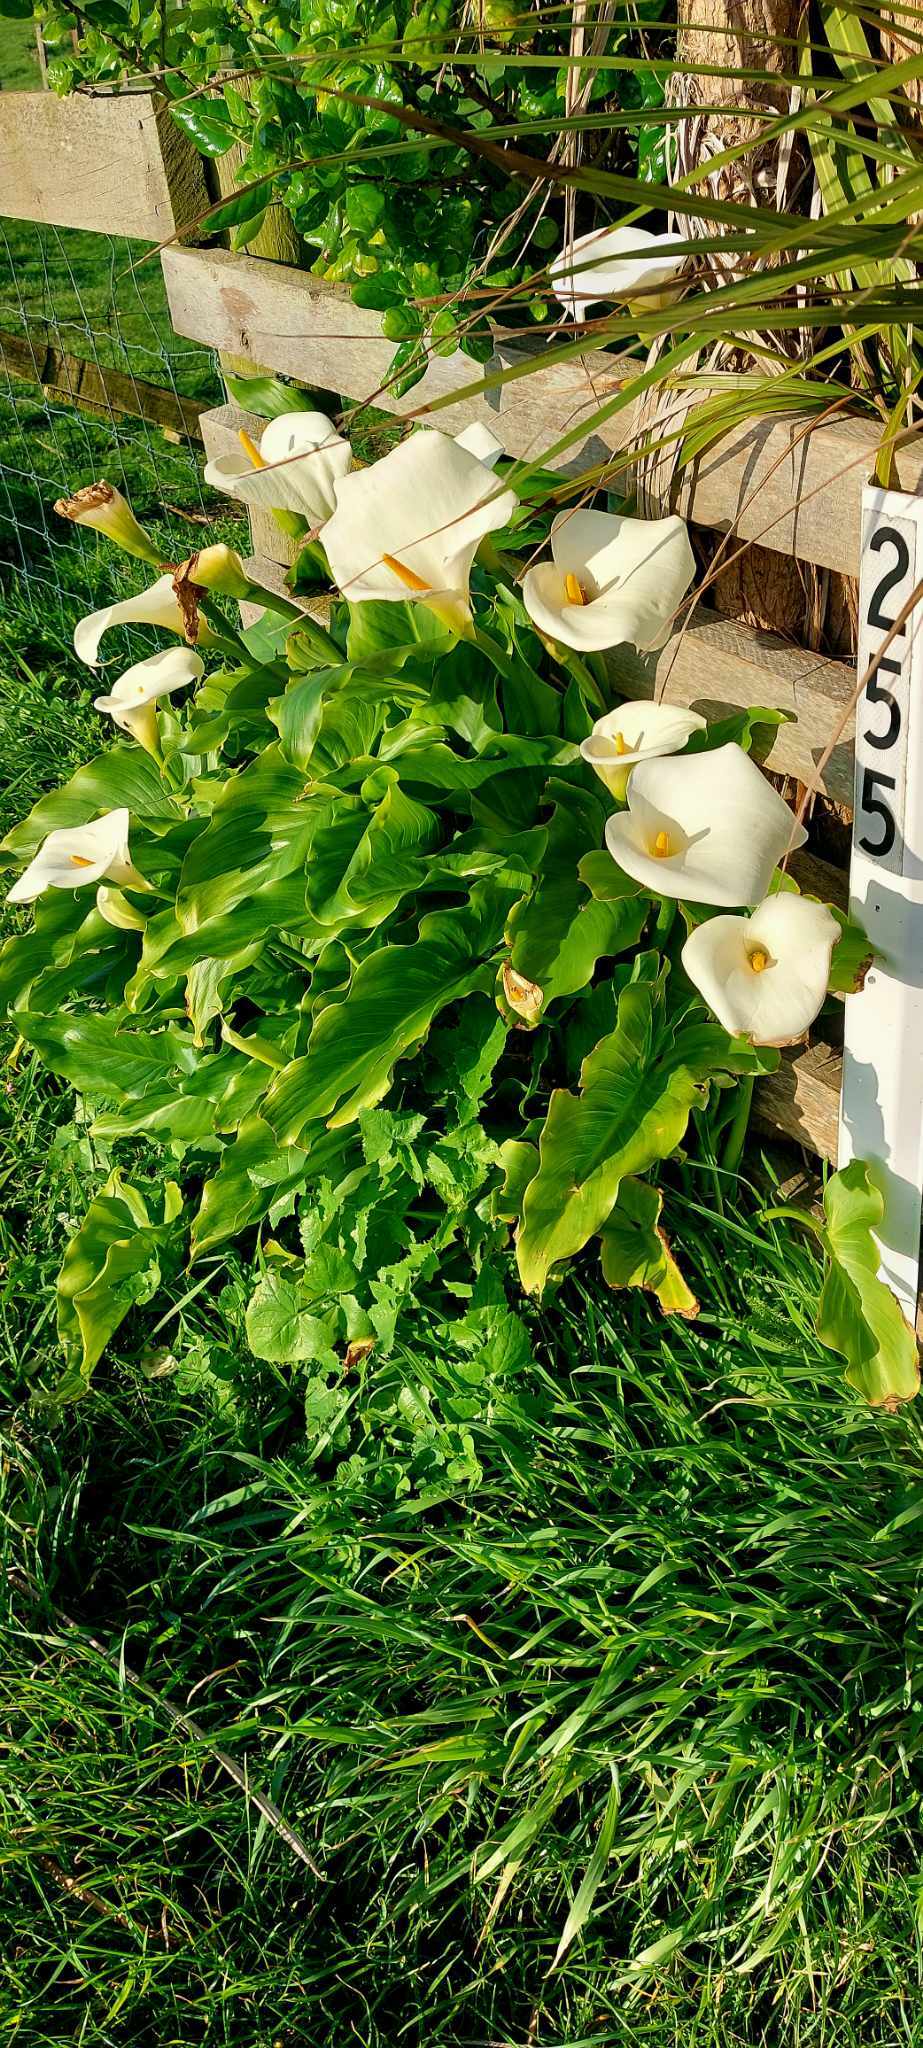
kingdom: Plantae
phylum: Tracheophyta
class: Liliopsida
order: Alismatales
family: Araceae
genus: Zantedeschia
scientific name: Zantedeschia aethiopica
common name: Altar-lily
